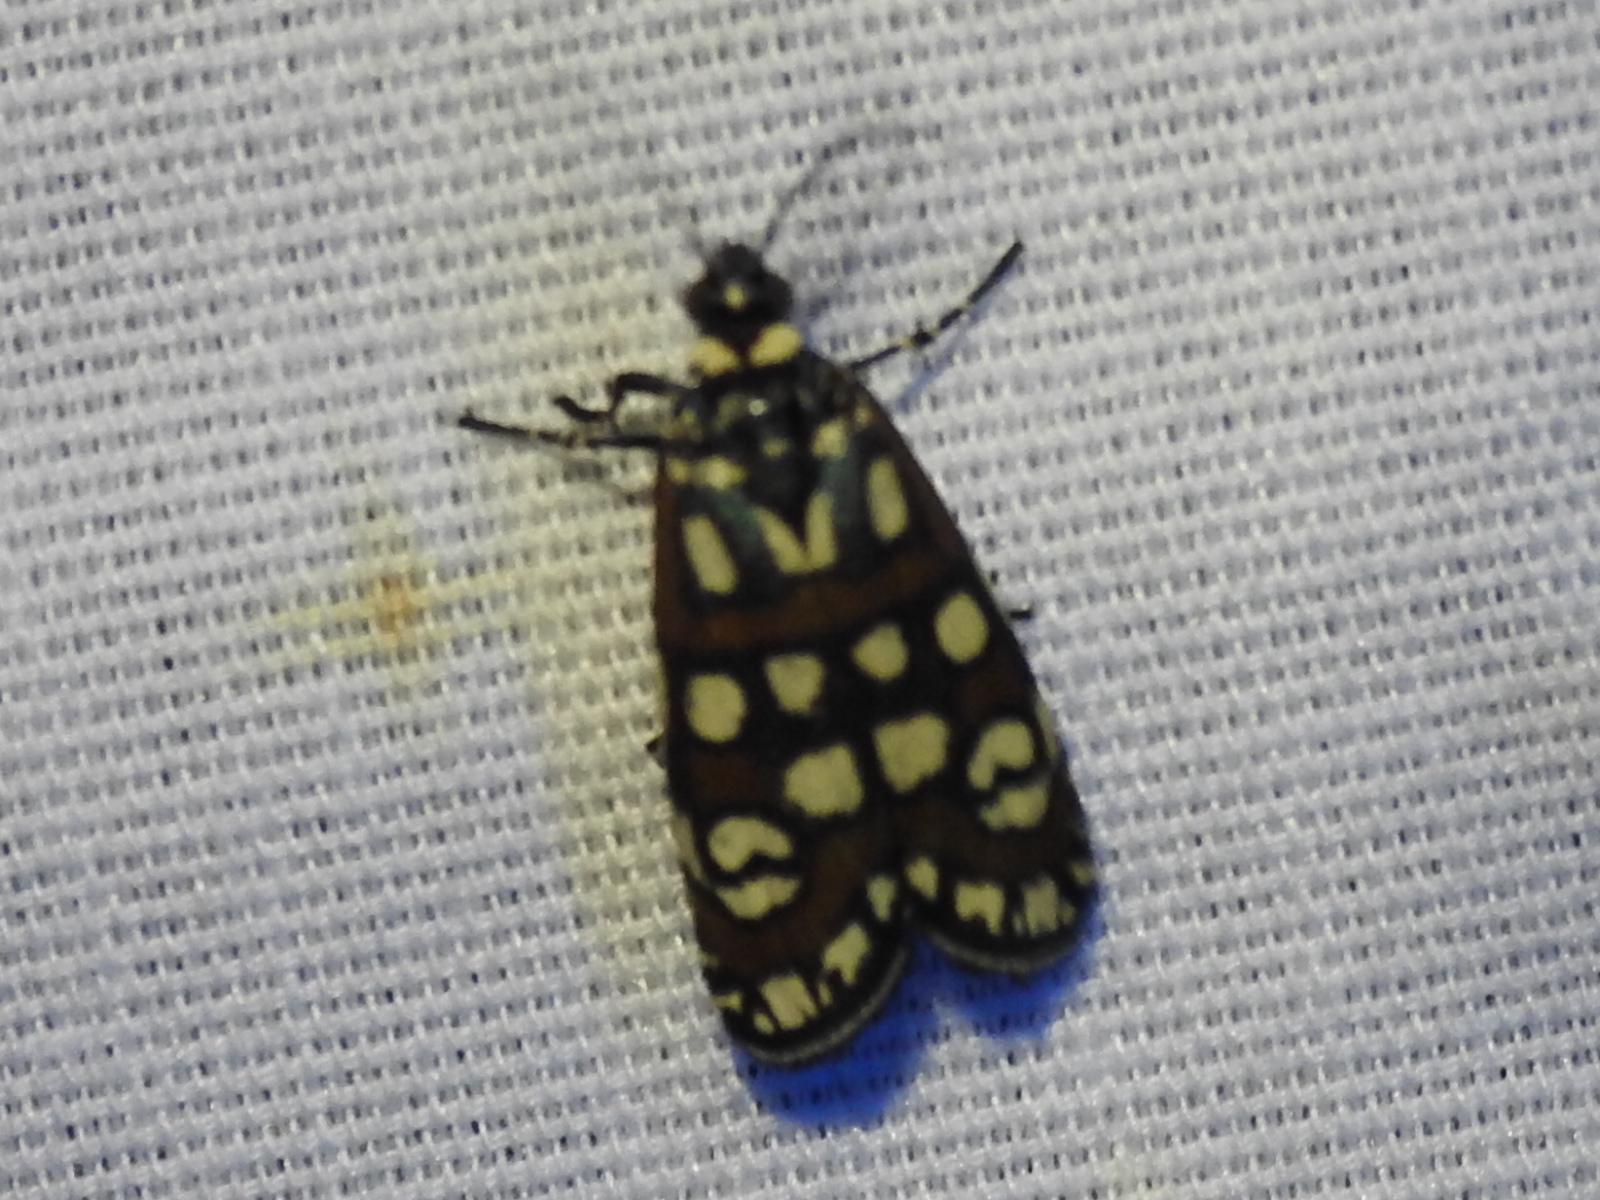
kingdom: Animalia
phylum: Arthropoda
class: Insecta
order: Lepidoptera
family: Noctuidae
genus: Cydosia
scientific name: Cydosia aurivitta
